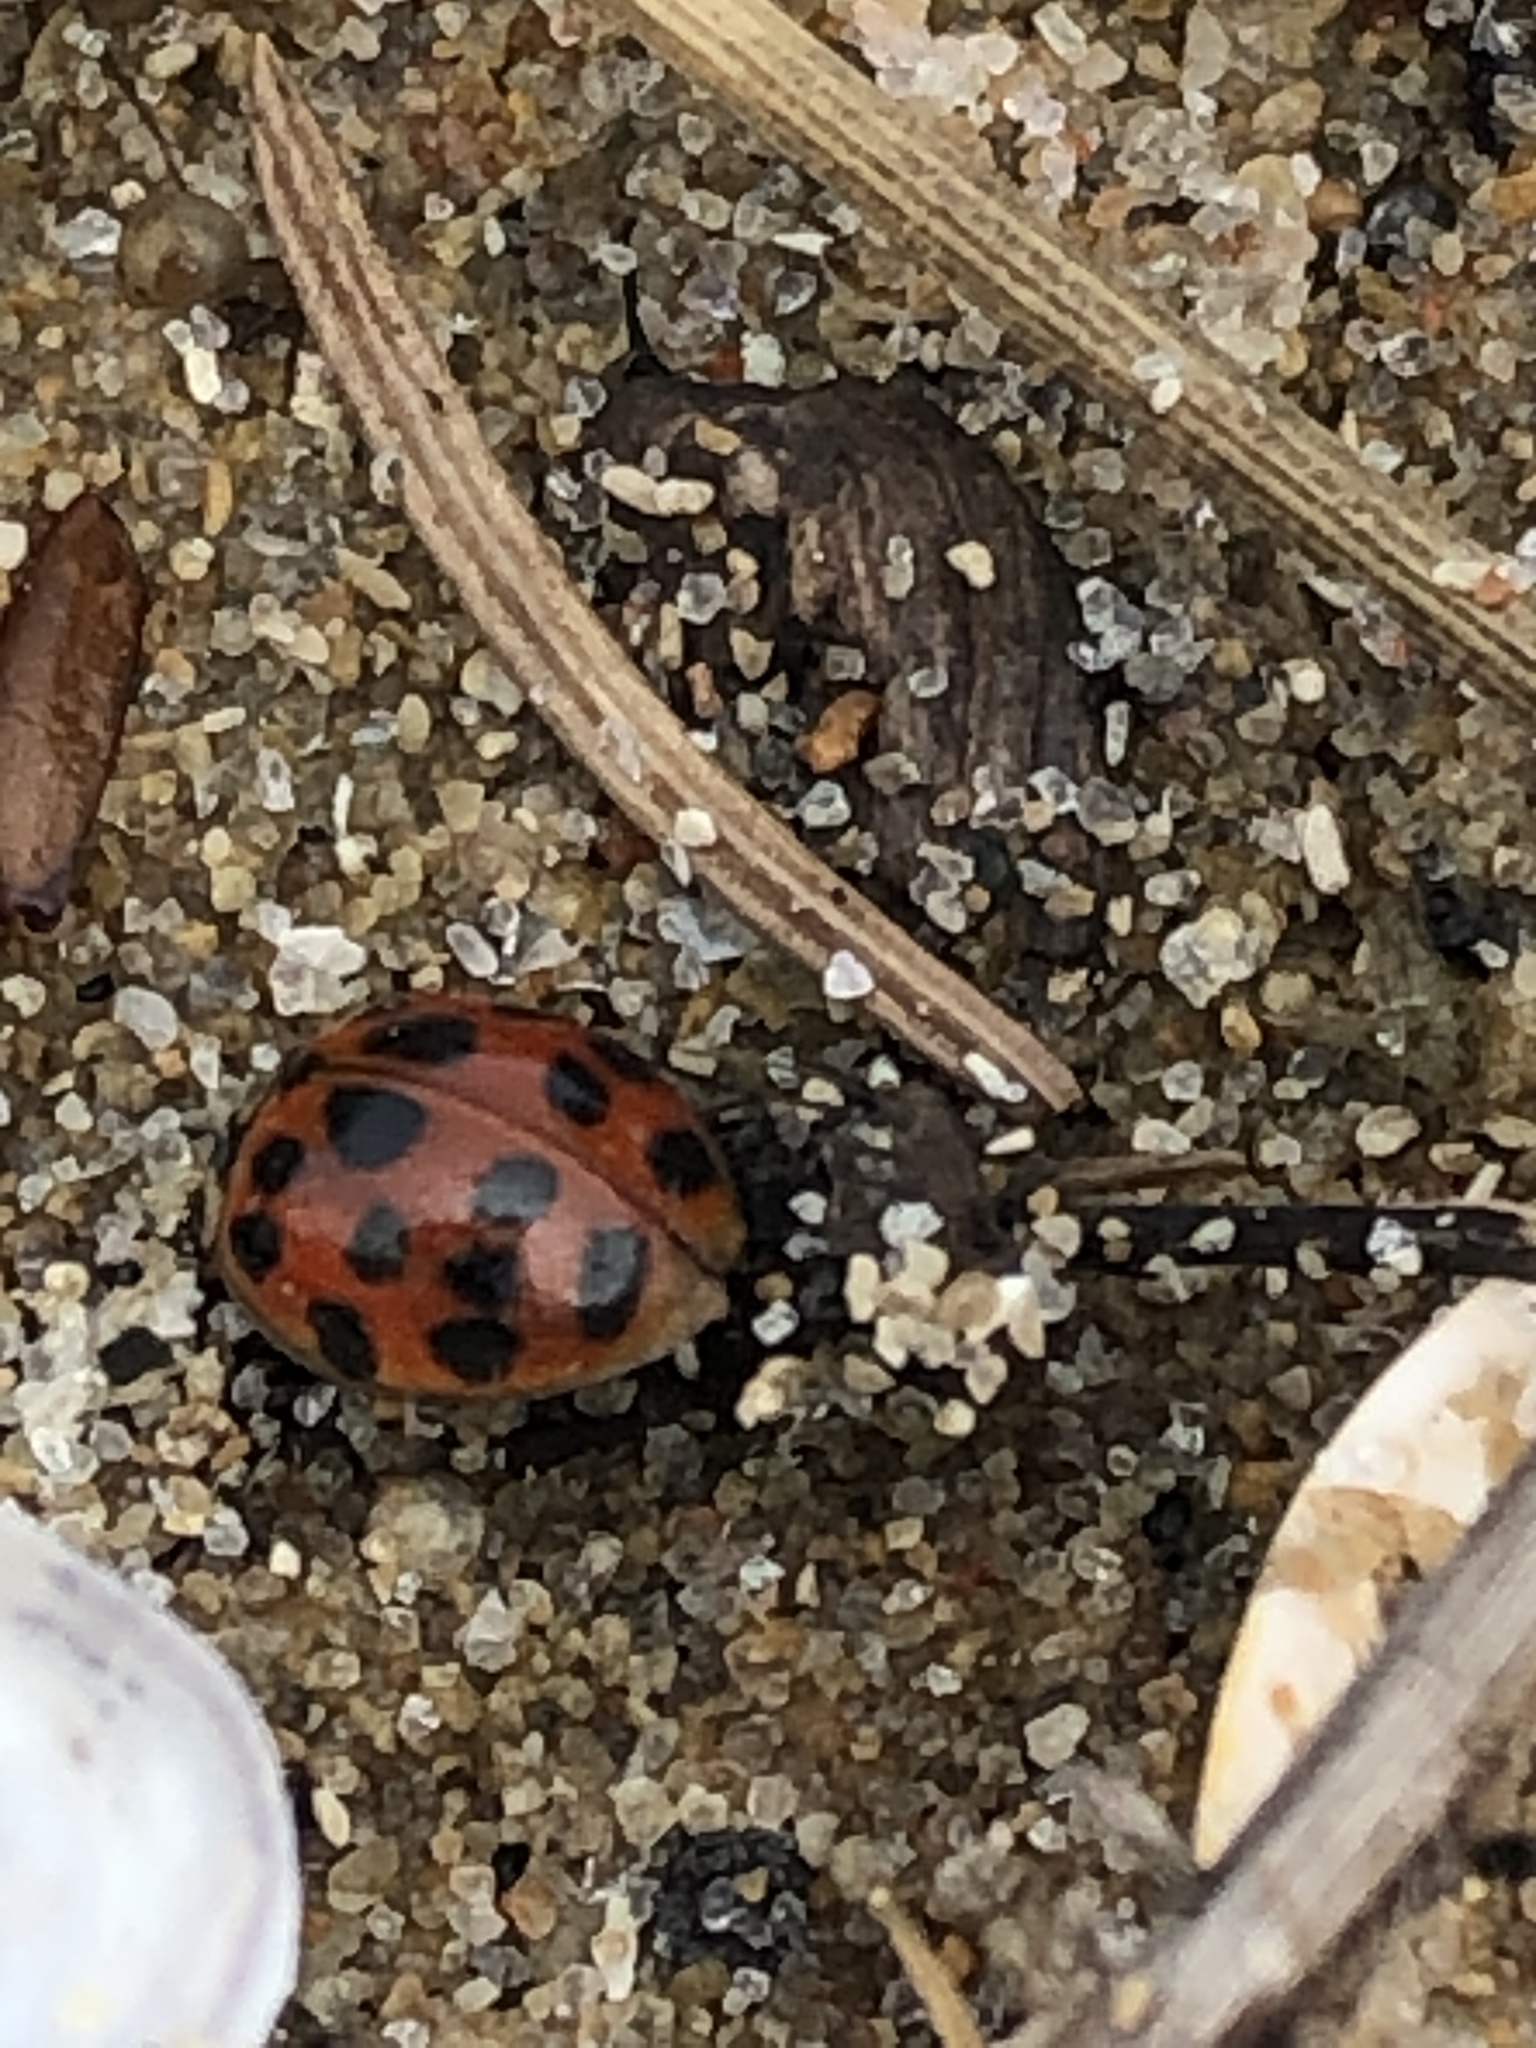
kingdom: Animalia
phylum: Arthropoda
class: Insecta
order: Coleoptera
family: Coccinellidae
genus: Harmonia
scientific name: Harmonia axyridis
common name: Harlequin ladybird
